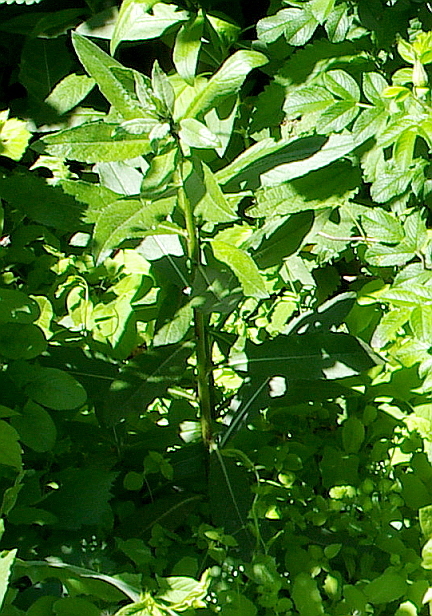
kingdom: Plantae
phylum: Tracheophyta
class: Magnoliopsida
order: Asterales
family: Asteraceae
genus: Cirsium
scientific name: Cirsium arvense
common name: Creeping thistle
